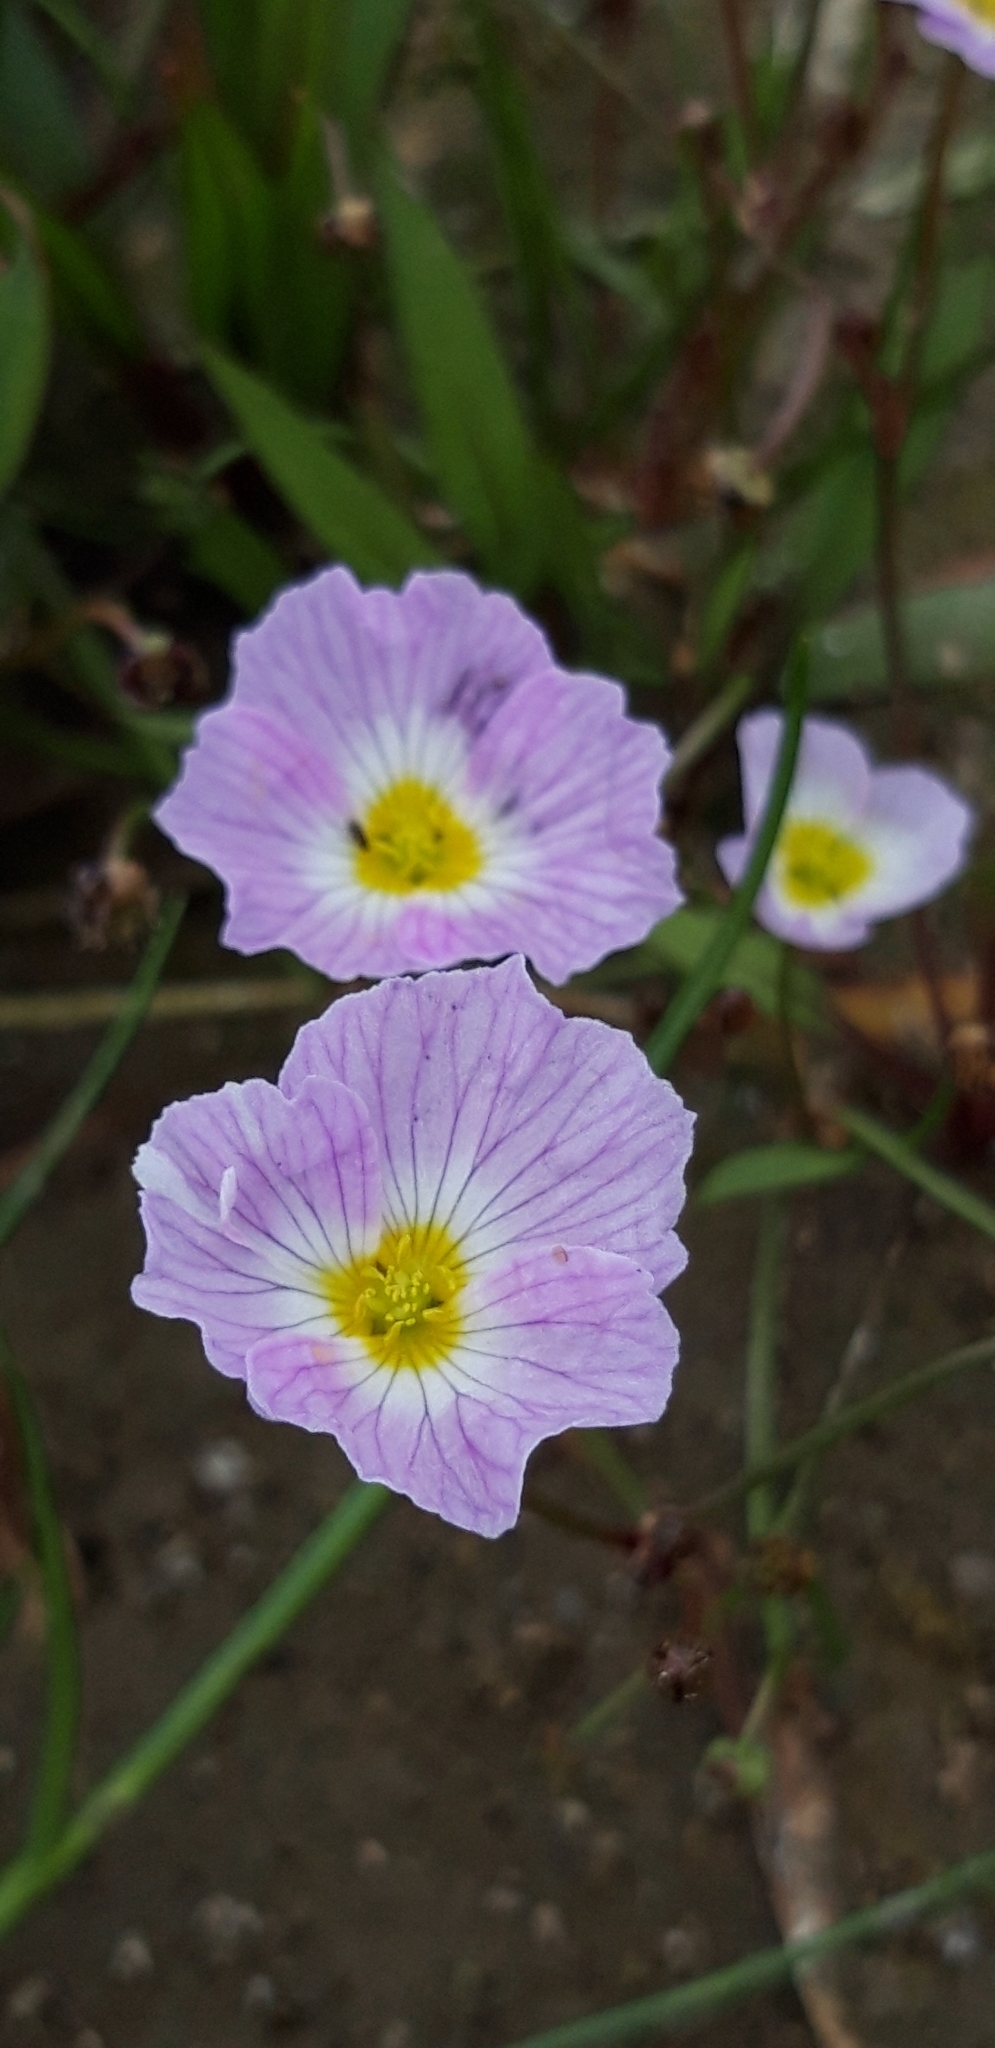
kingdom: Plantae
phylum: Tracheophyta
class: Liliopsida
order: Alismatales
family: Alismataceae
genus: Baldellia
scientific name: Baldellia
